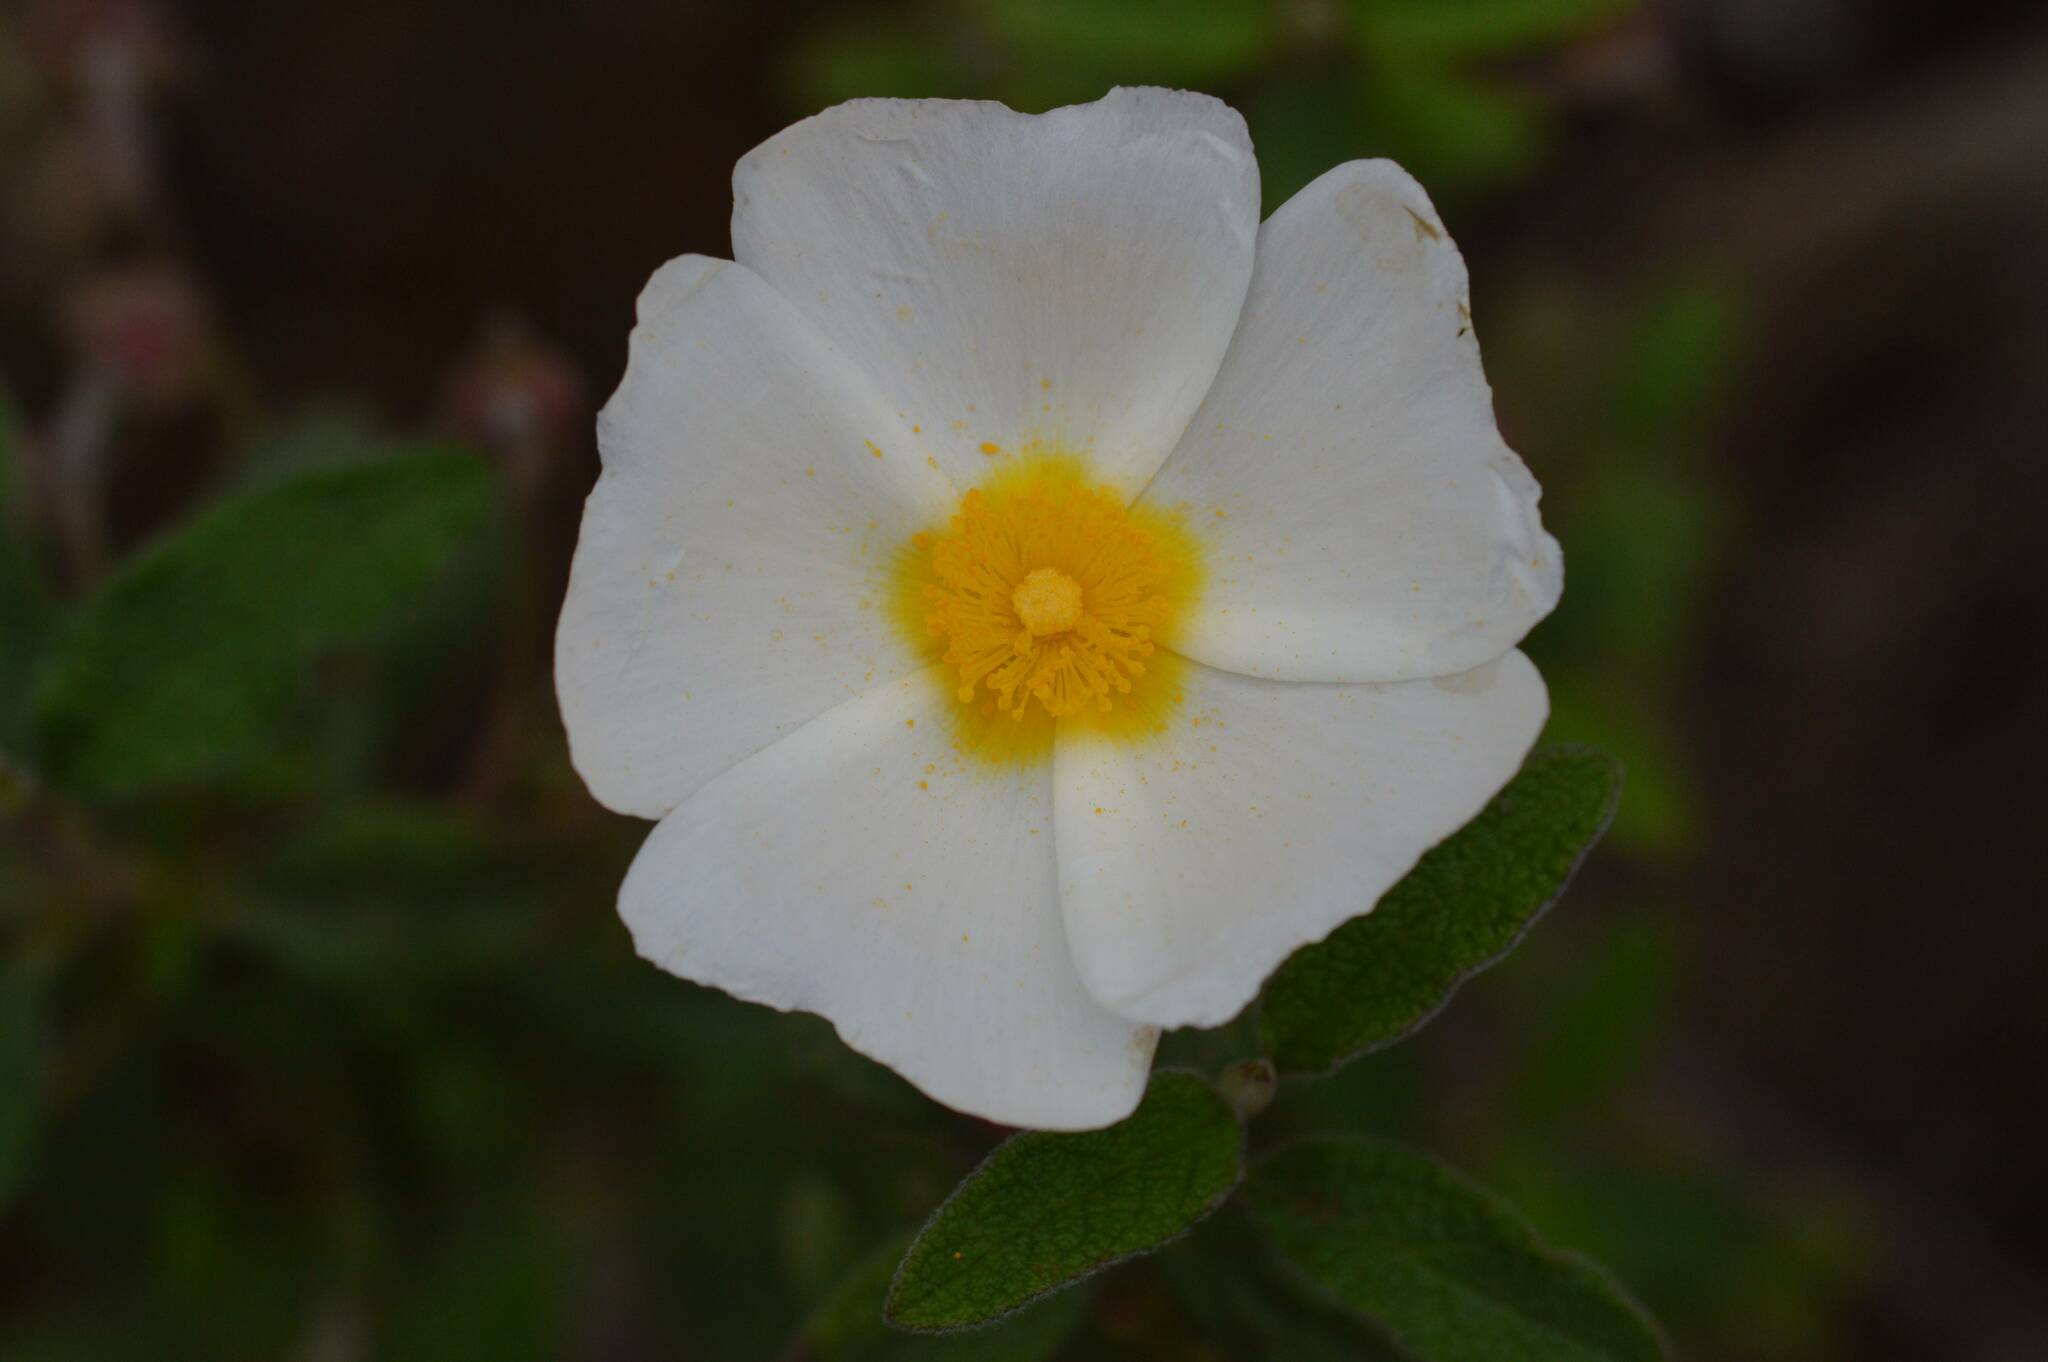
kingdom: Plantae
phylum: Tracheophyta
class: Magnoliopsida
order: Malvales
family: Cistaceae
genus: Cistus
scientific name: Cistus salviifolius
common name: Salvia cistus
